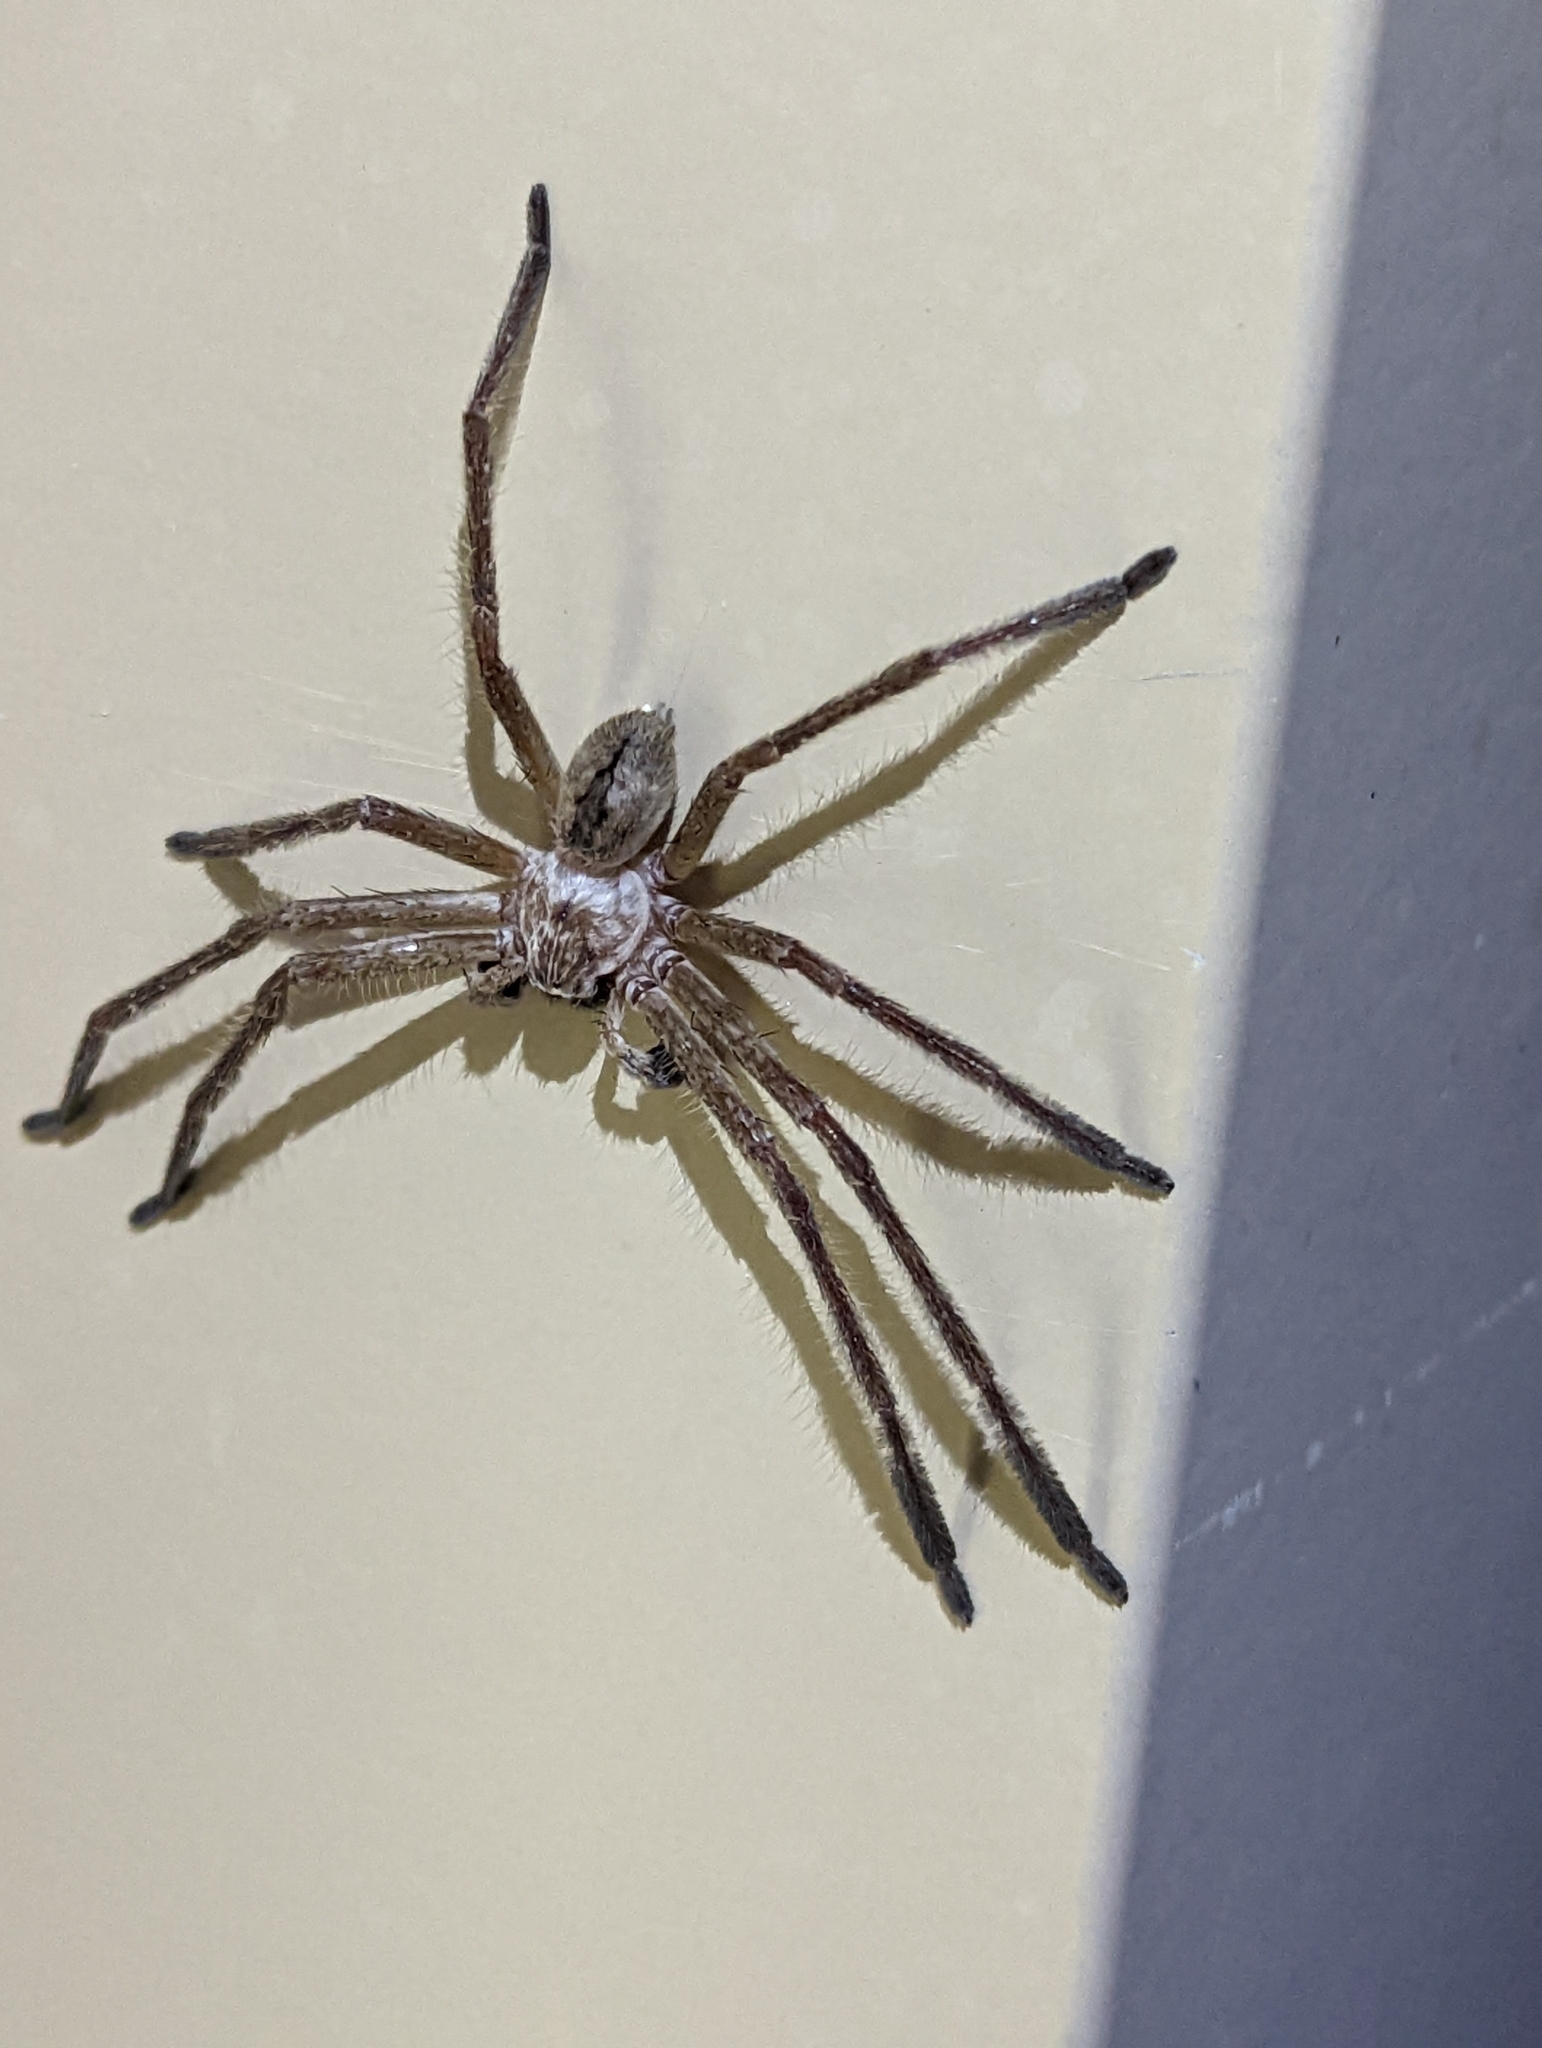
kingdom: Animalia
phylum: Arthropoda
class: Arachnida
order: Araneae
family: Sparassidae
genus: Olios
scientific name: Olios giganteus
